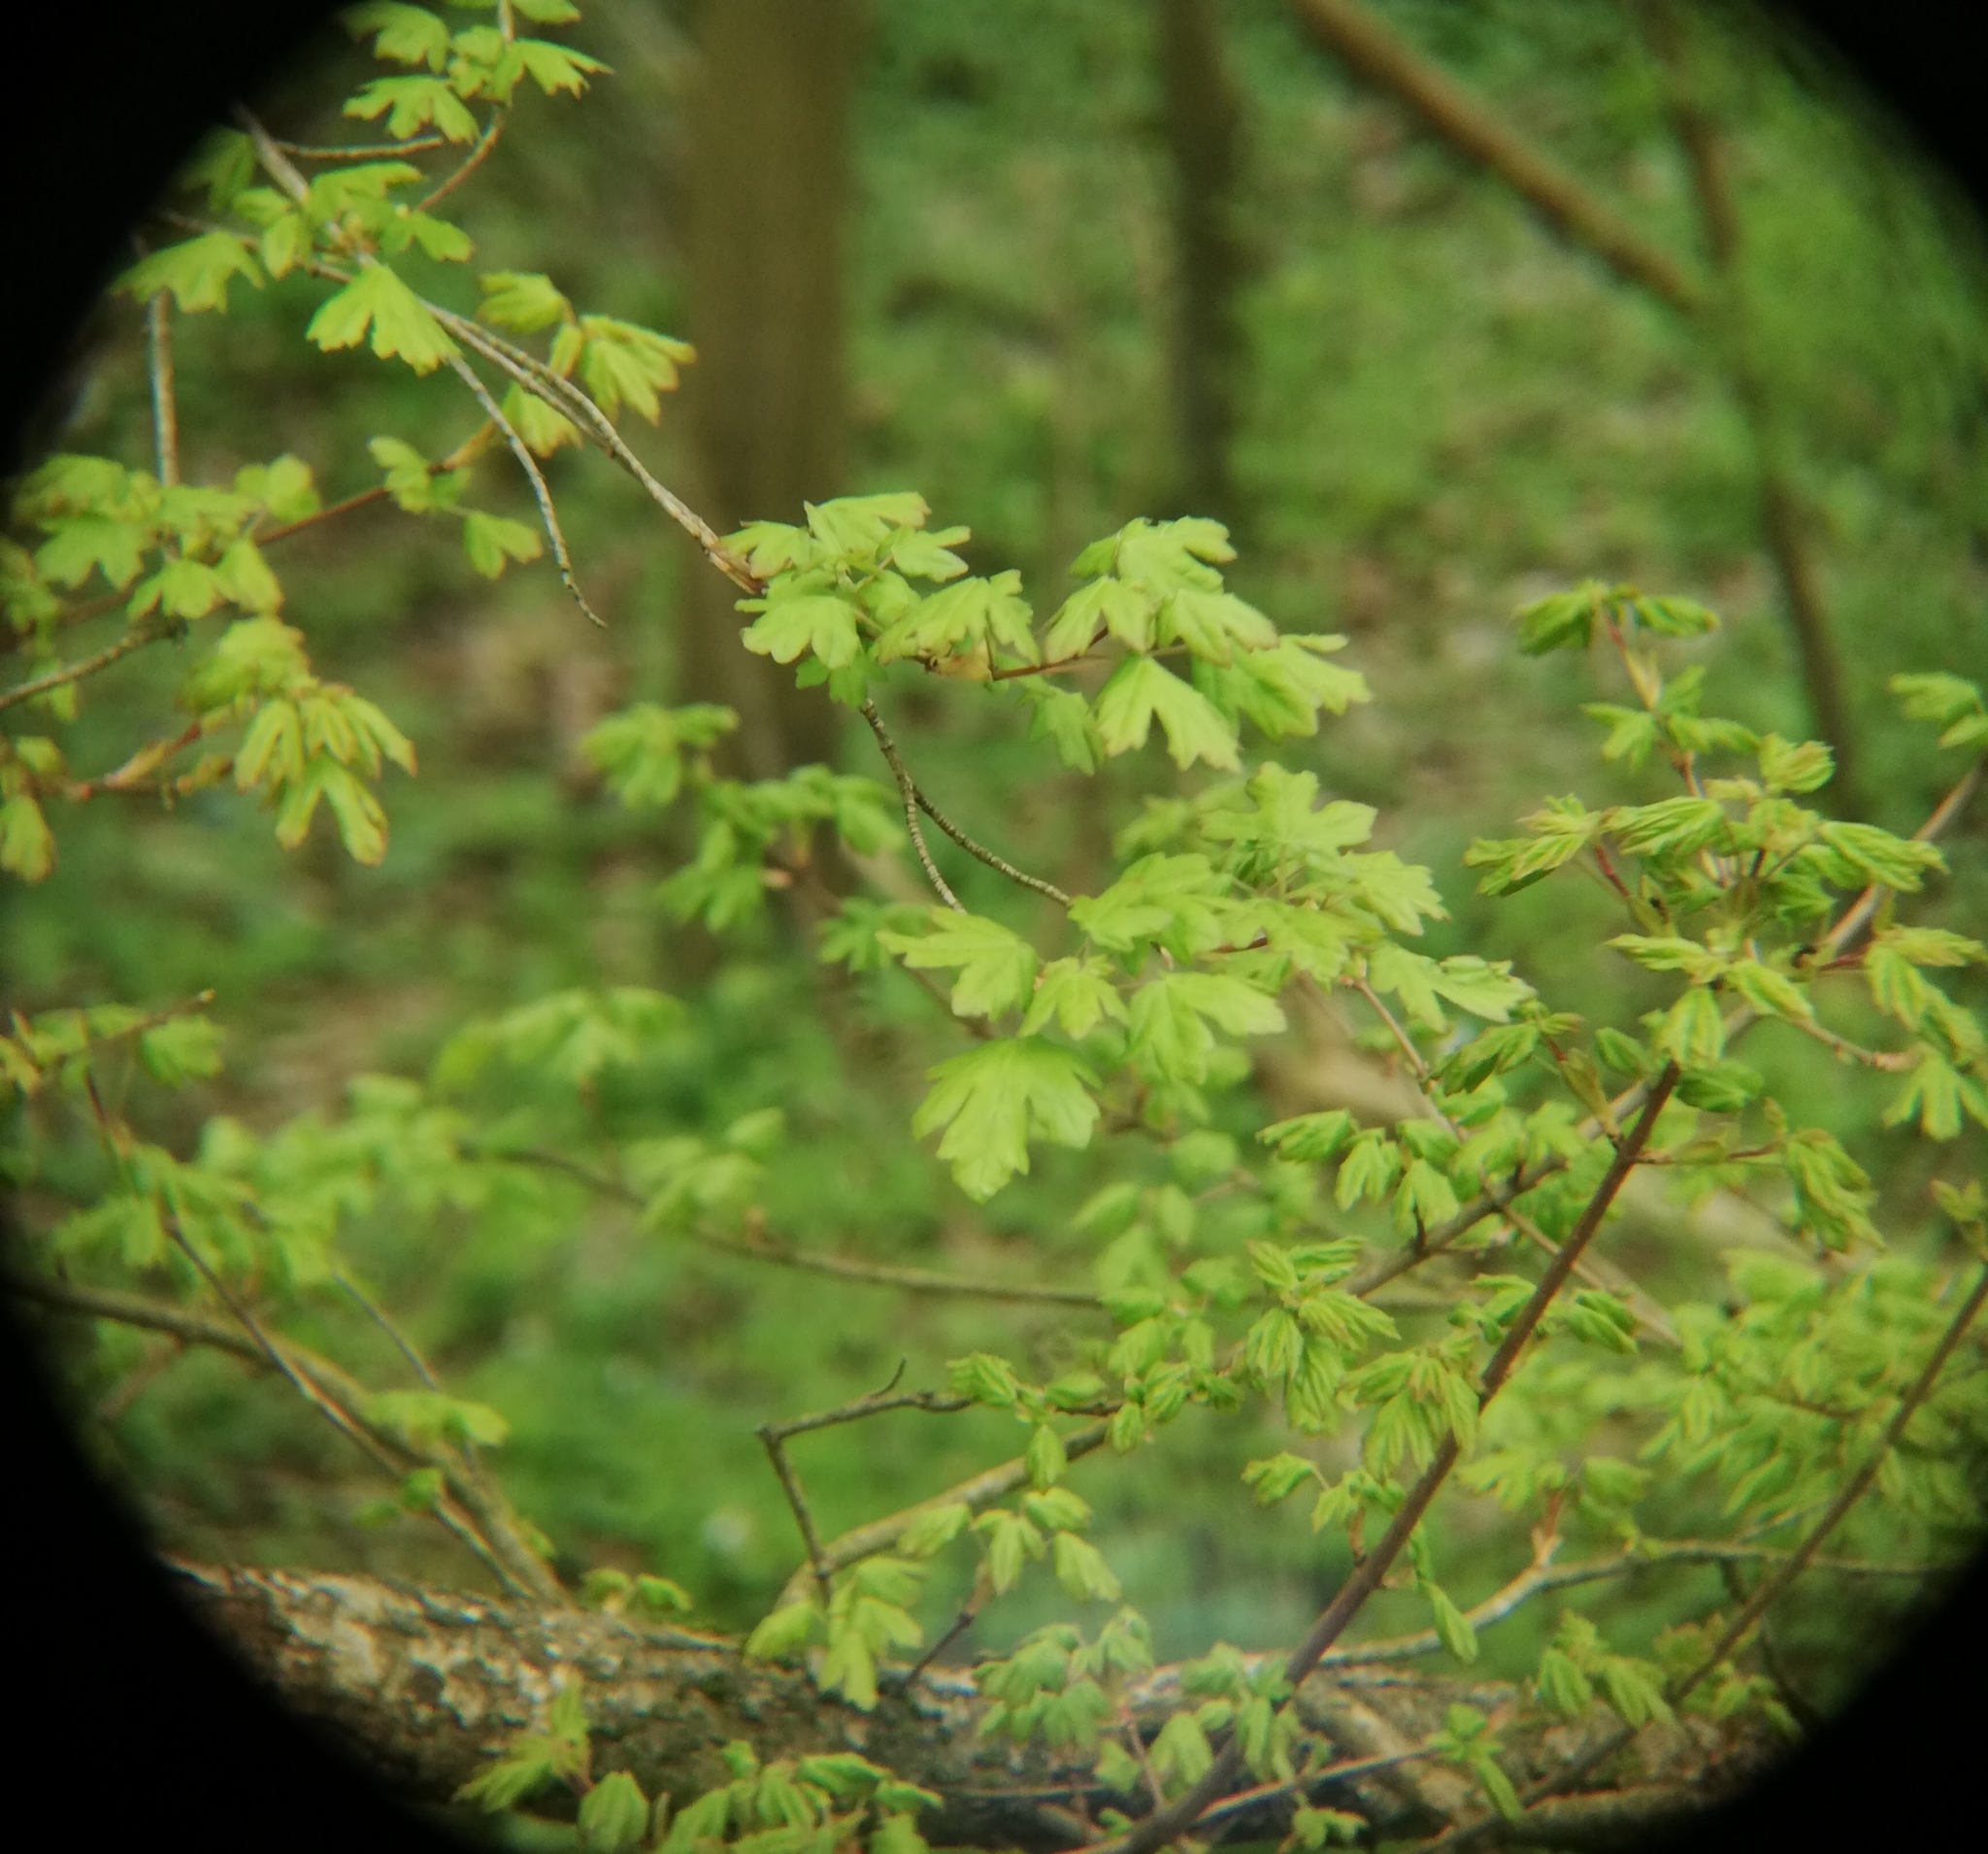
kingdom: Plantae
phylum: Tracheophyta
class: Magnoliopsida
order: Sapindales
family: Sapindaceae
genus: Acer
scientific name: Acer campestre
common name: Field maple
